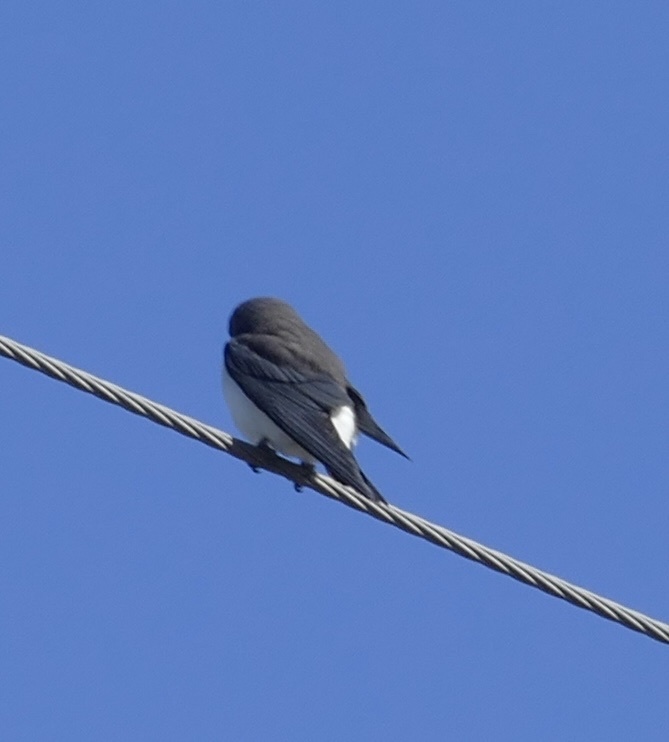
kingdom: Animalia
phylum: Chordata
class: Aves
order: Passeriformes
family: Artamidae
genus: Artamus
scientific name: Artamus leucoryn
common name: White-breasted woodswallow
